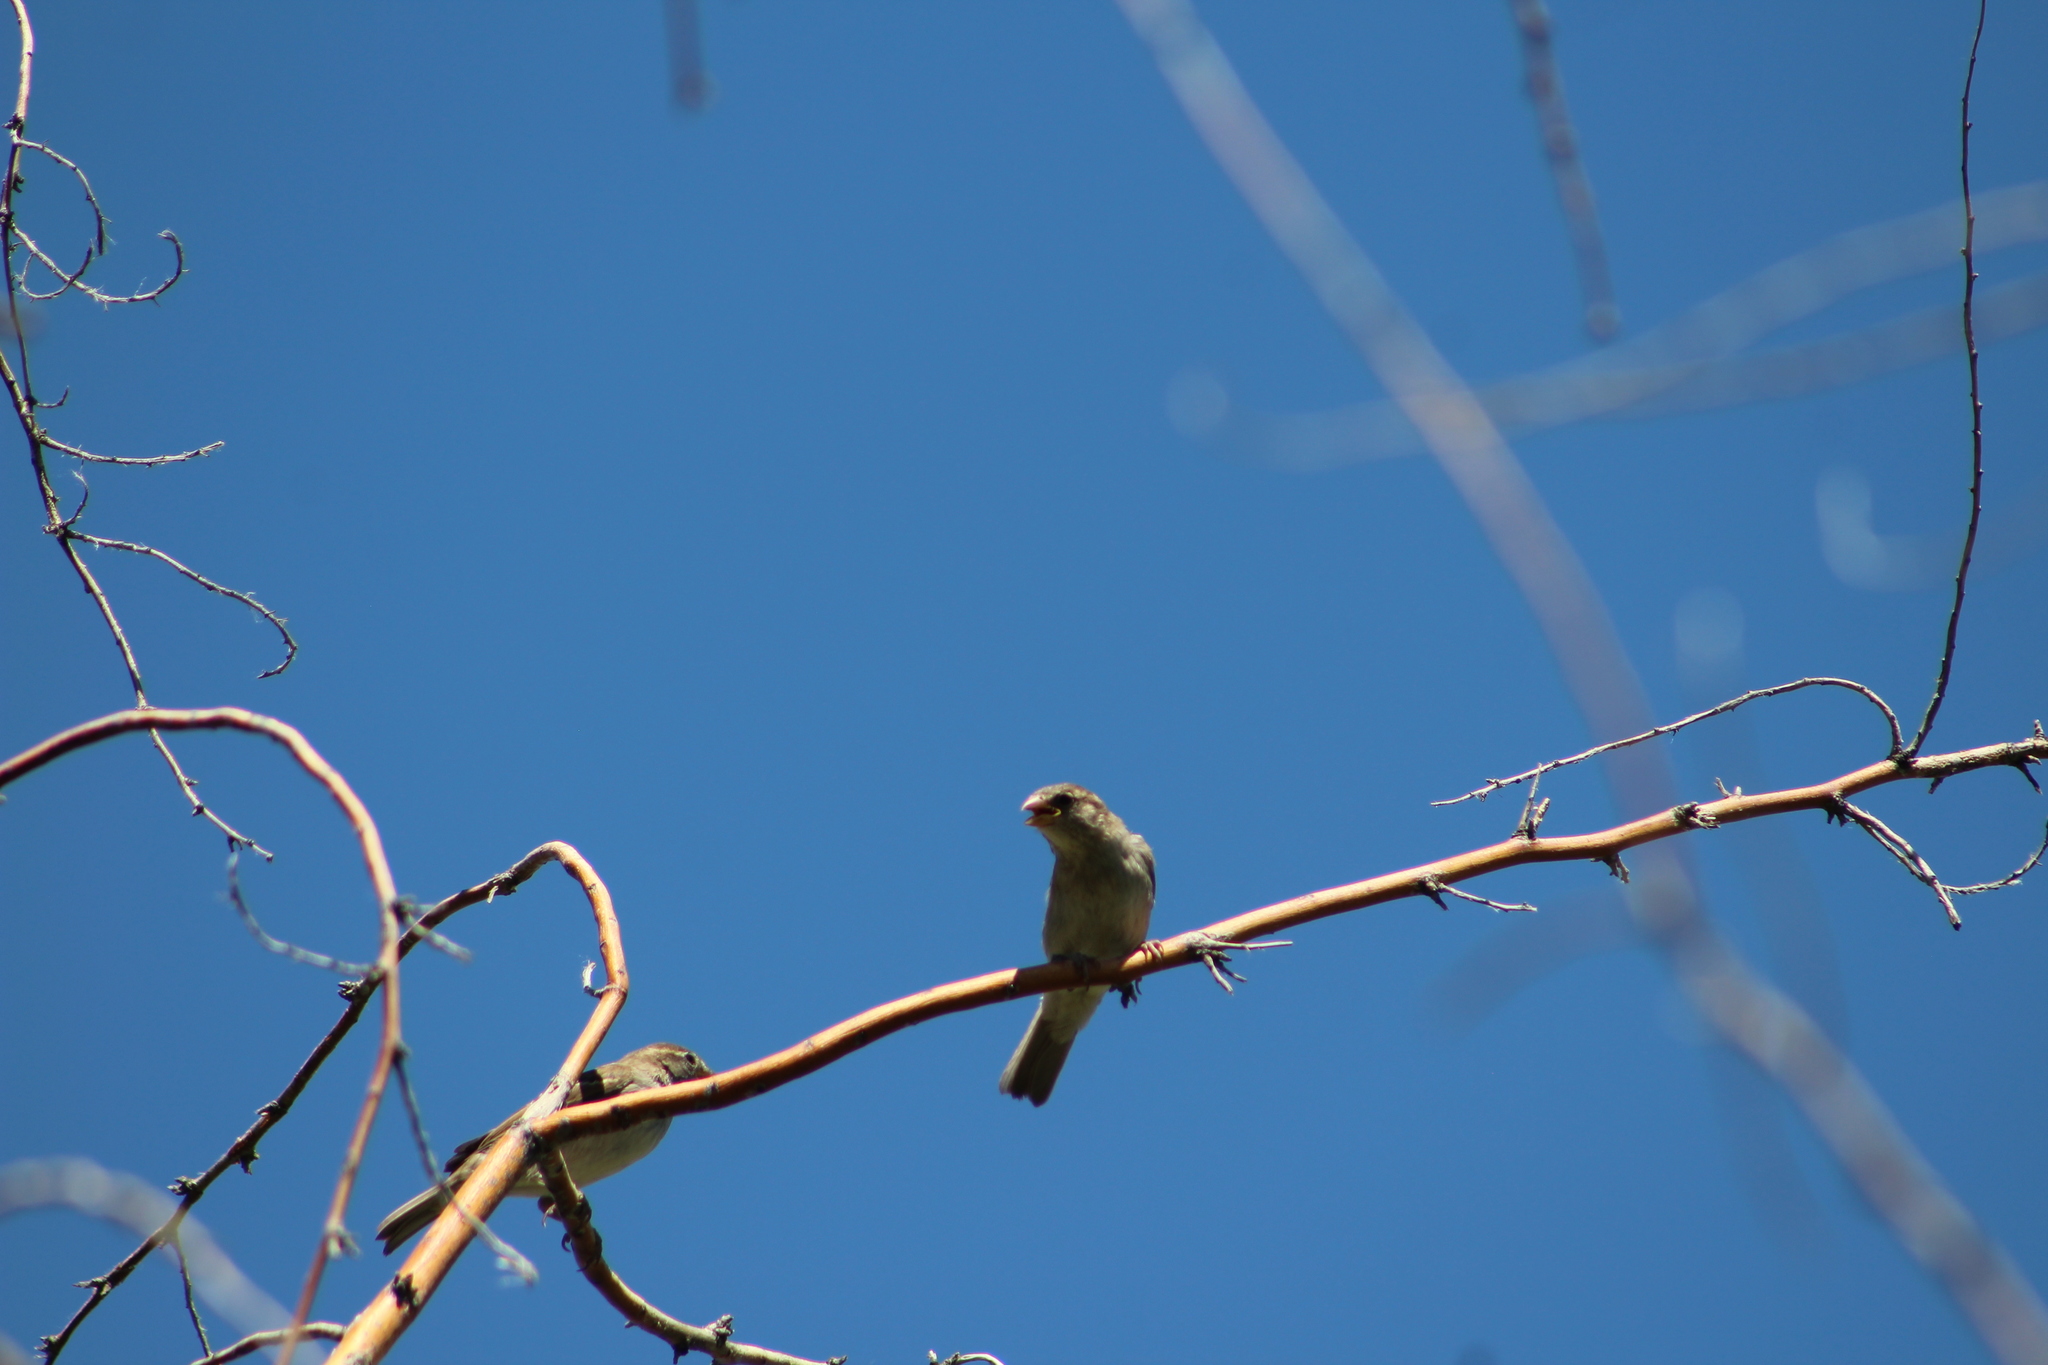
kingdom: Animalia
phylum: Chordata
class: Aves
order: Passeriformes
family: Passeridae
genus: Passer
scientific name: Passer domesticus
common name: House sparrow
